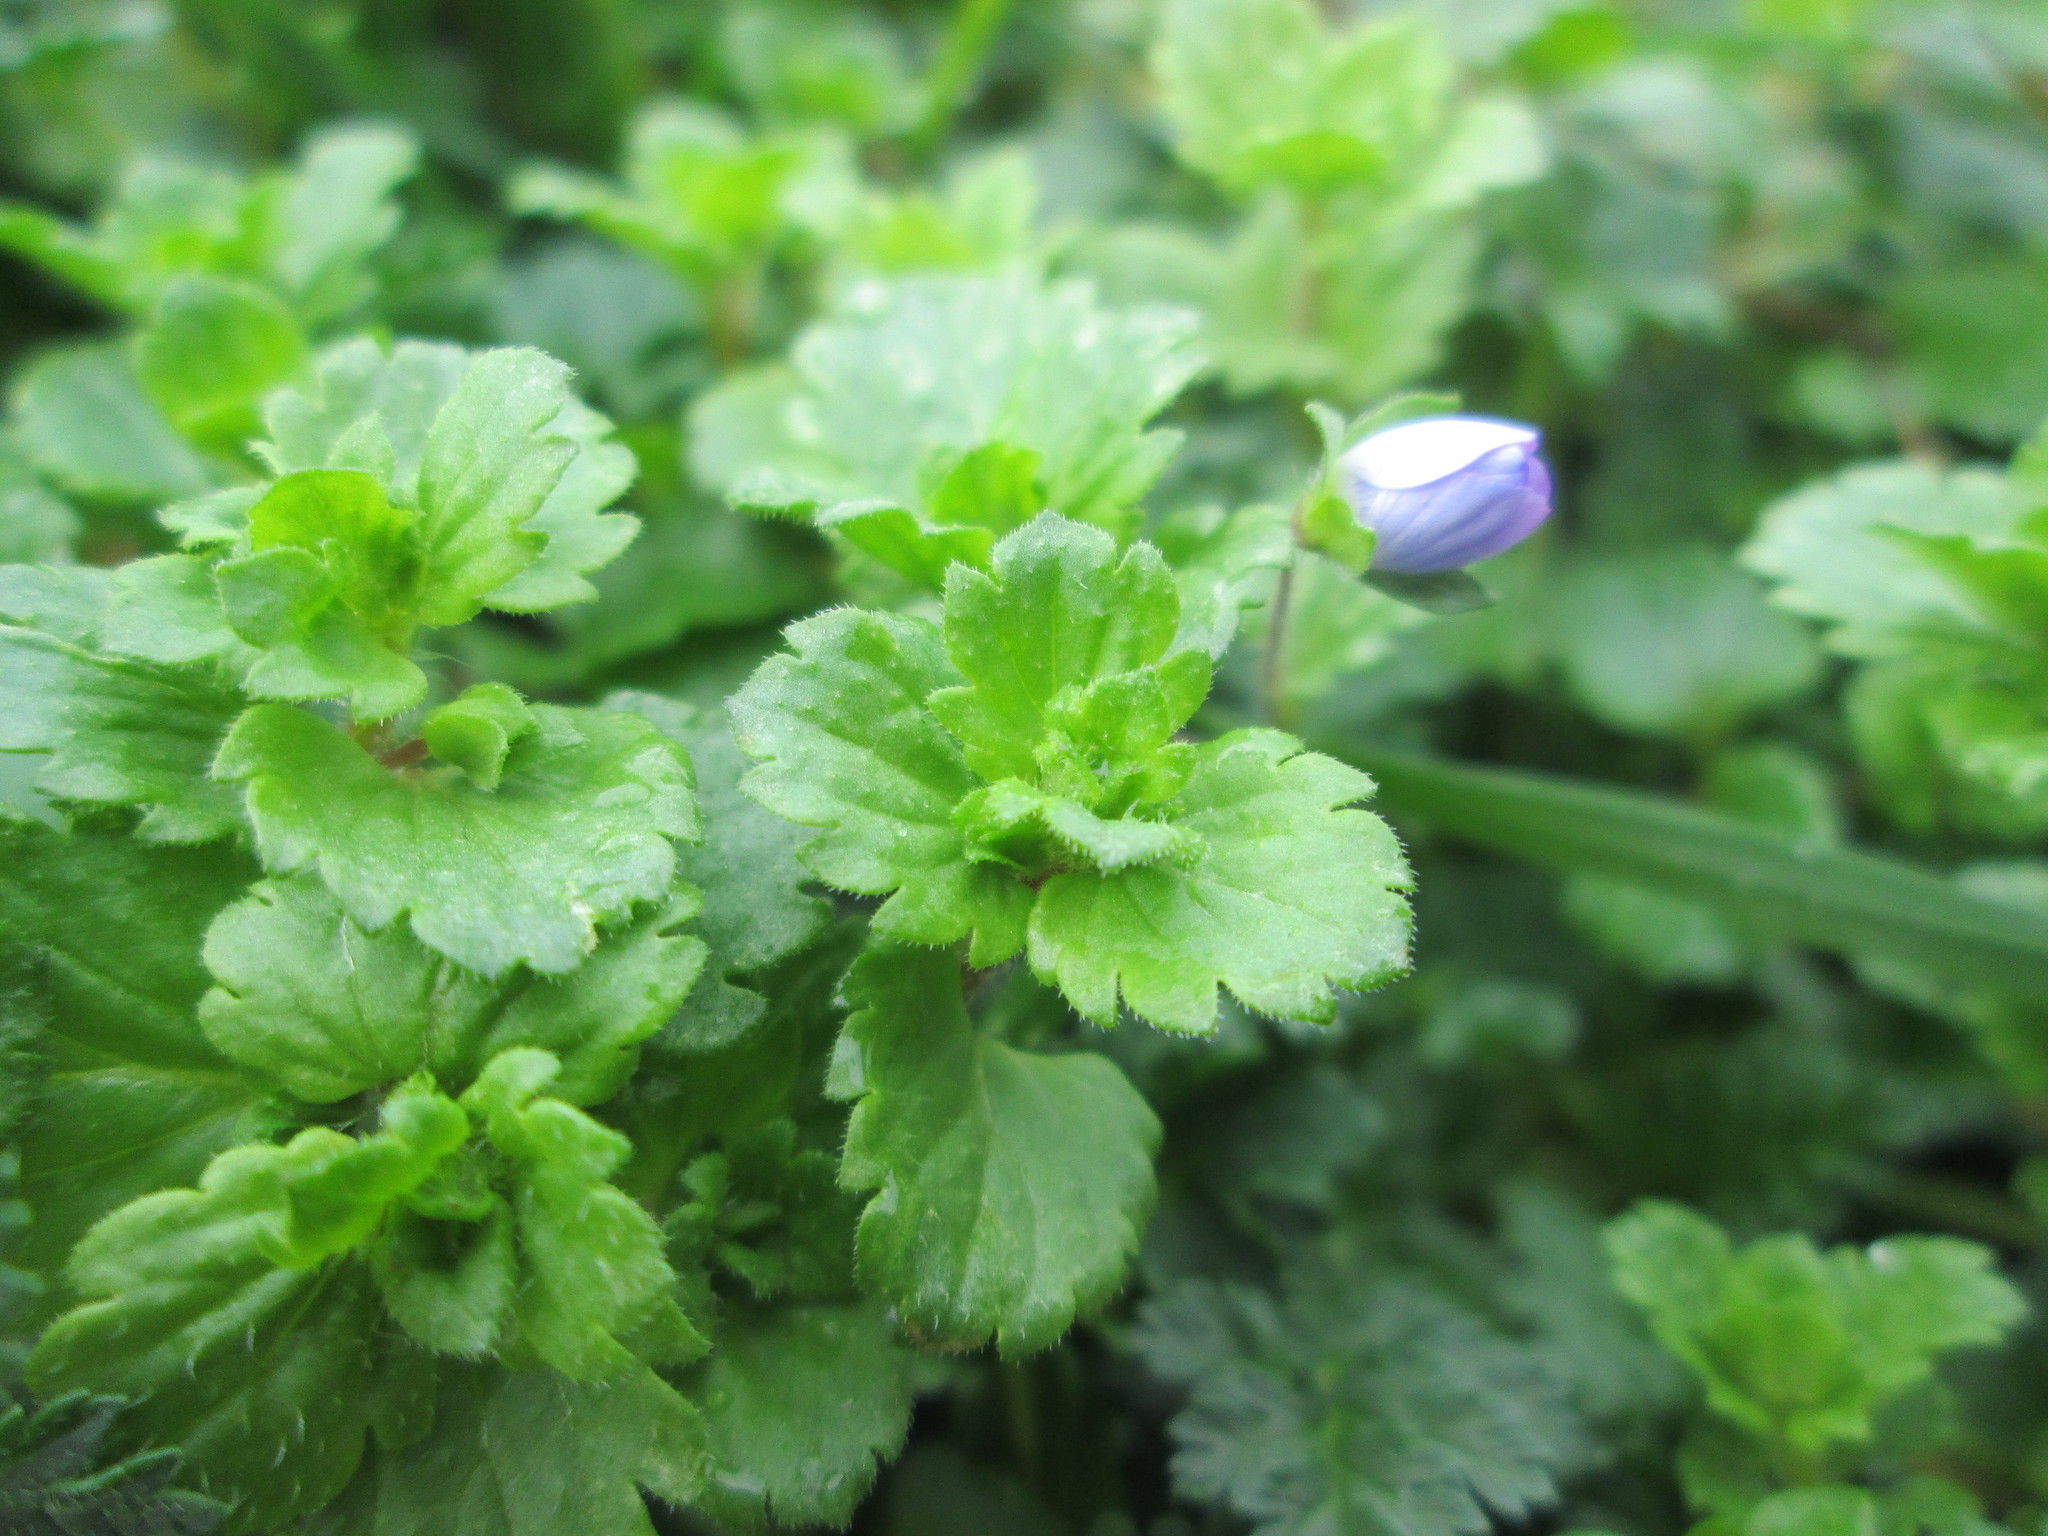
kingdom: Plantae
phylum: Tracheophyta
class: Magnoliopsida
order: Lamiales
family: Plantaginaceae
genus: Veronica
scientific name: Veronica persica
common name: Common field-speedwell
